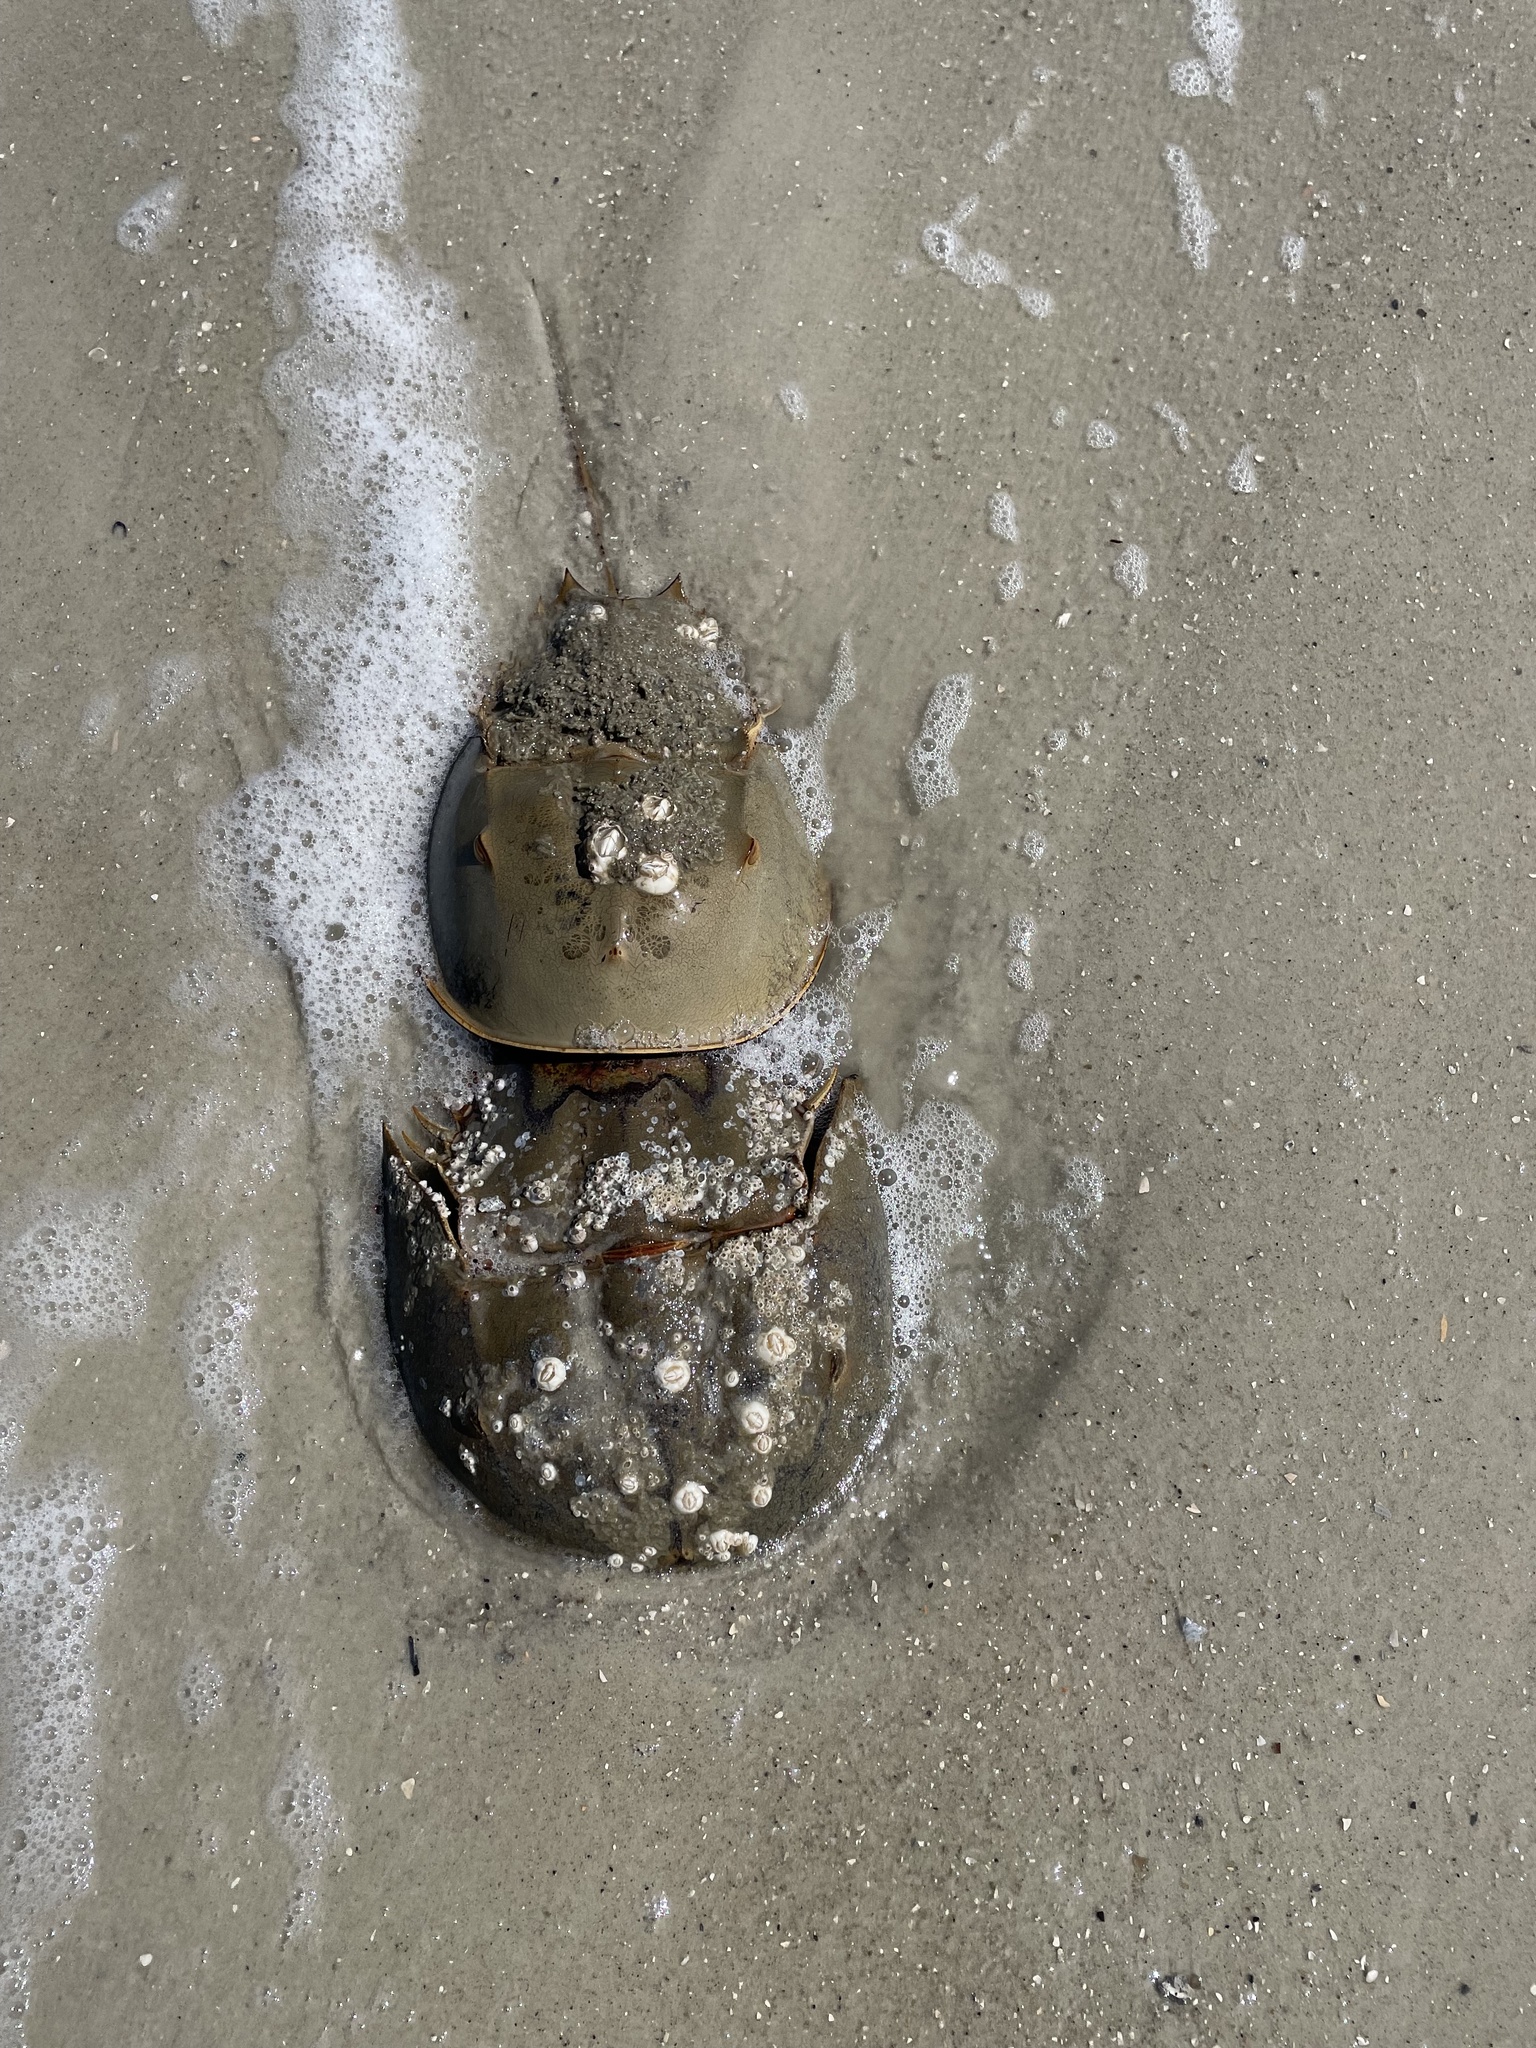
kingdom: Animalia
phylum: Arthropoda
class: Merostomata
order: Xiphosurida
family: Limulidae
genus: Limulus
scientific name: Limulus polyphemus
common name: Horseshoe crab
